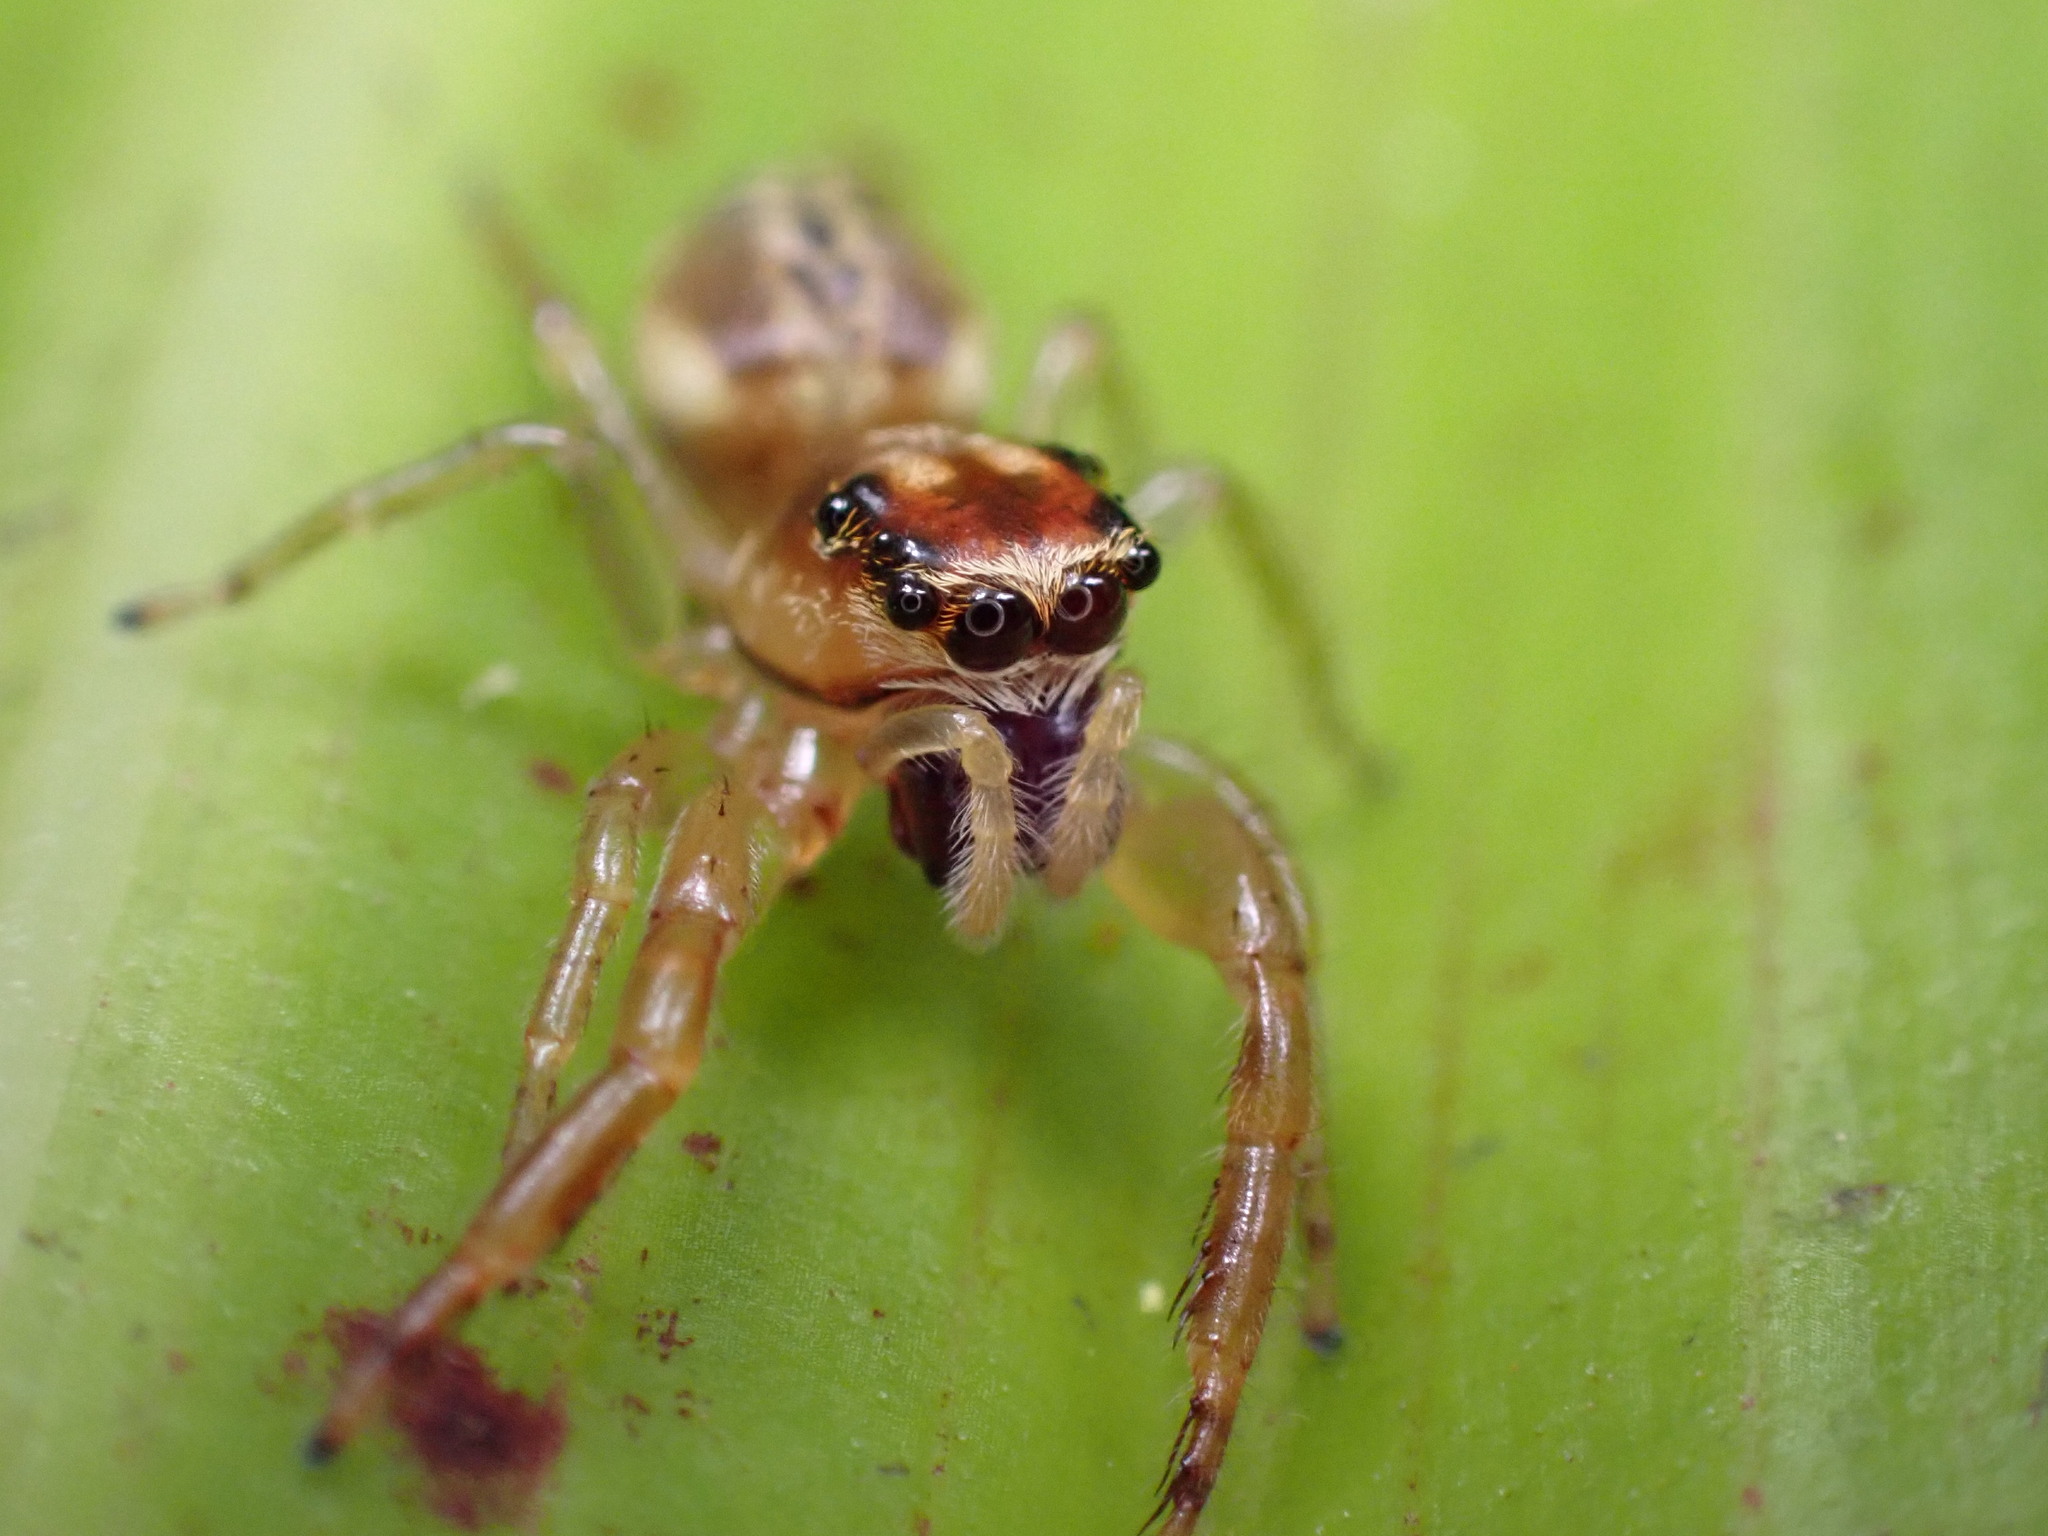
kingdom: Animalia
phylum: Arthropoda
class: Arachnida
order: Araneae
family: Salticidae
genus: Trite
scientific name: Trite mustilina
